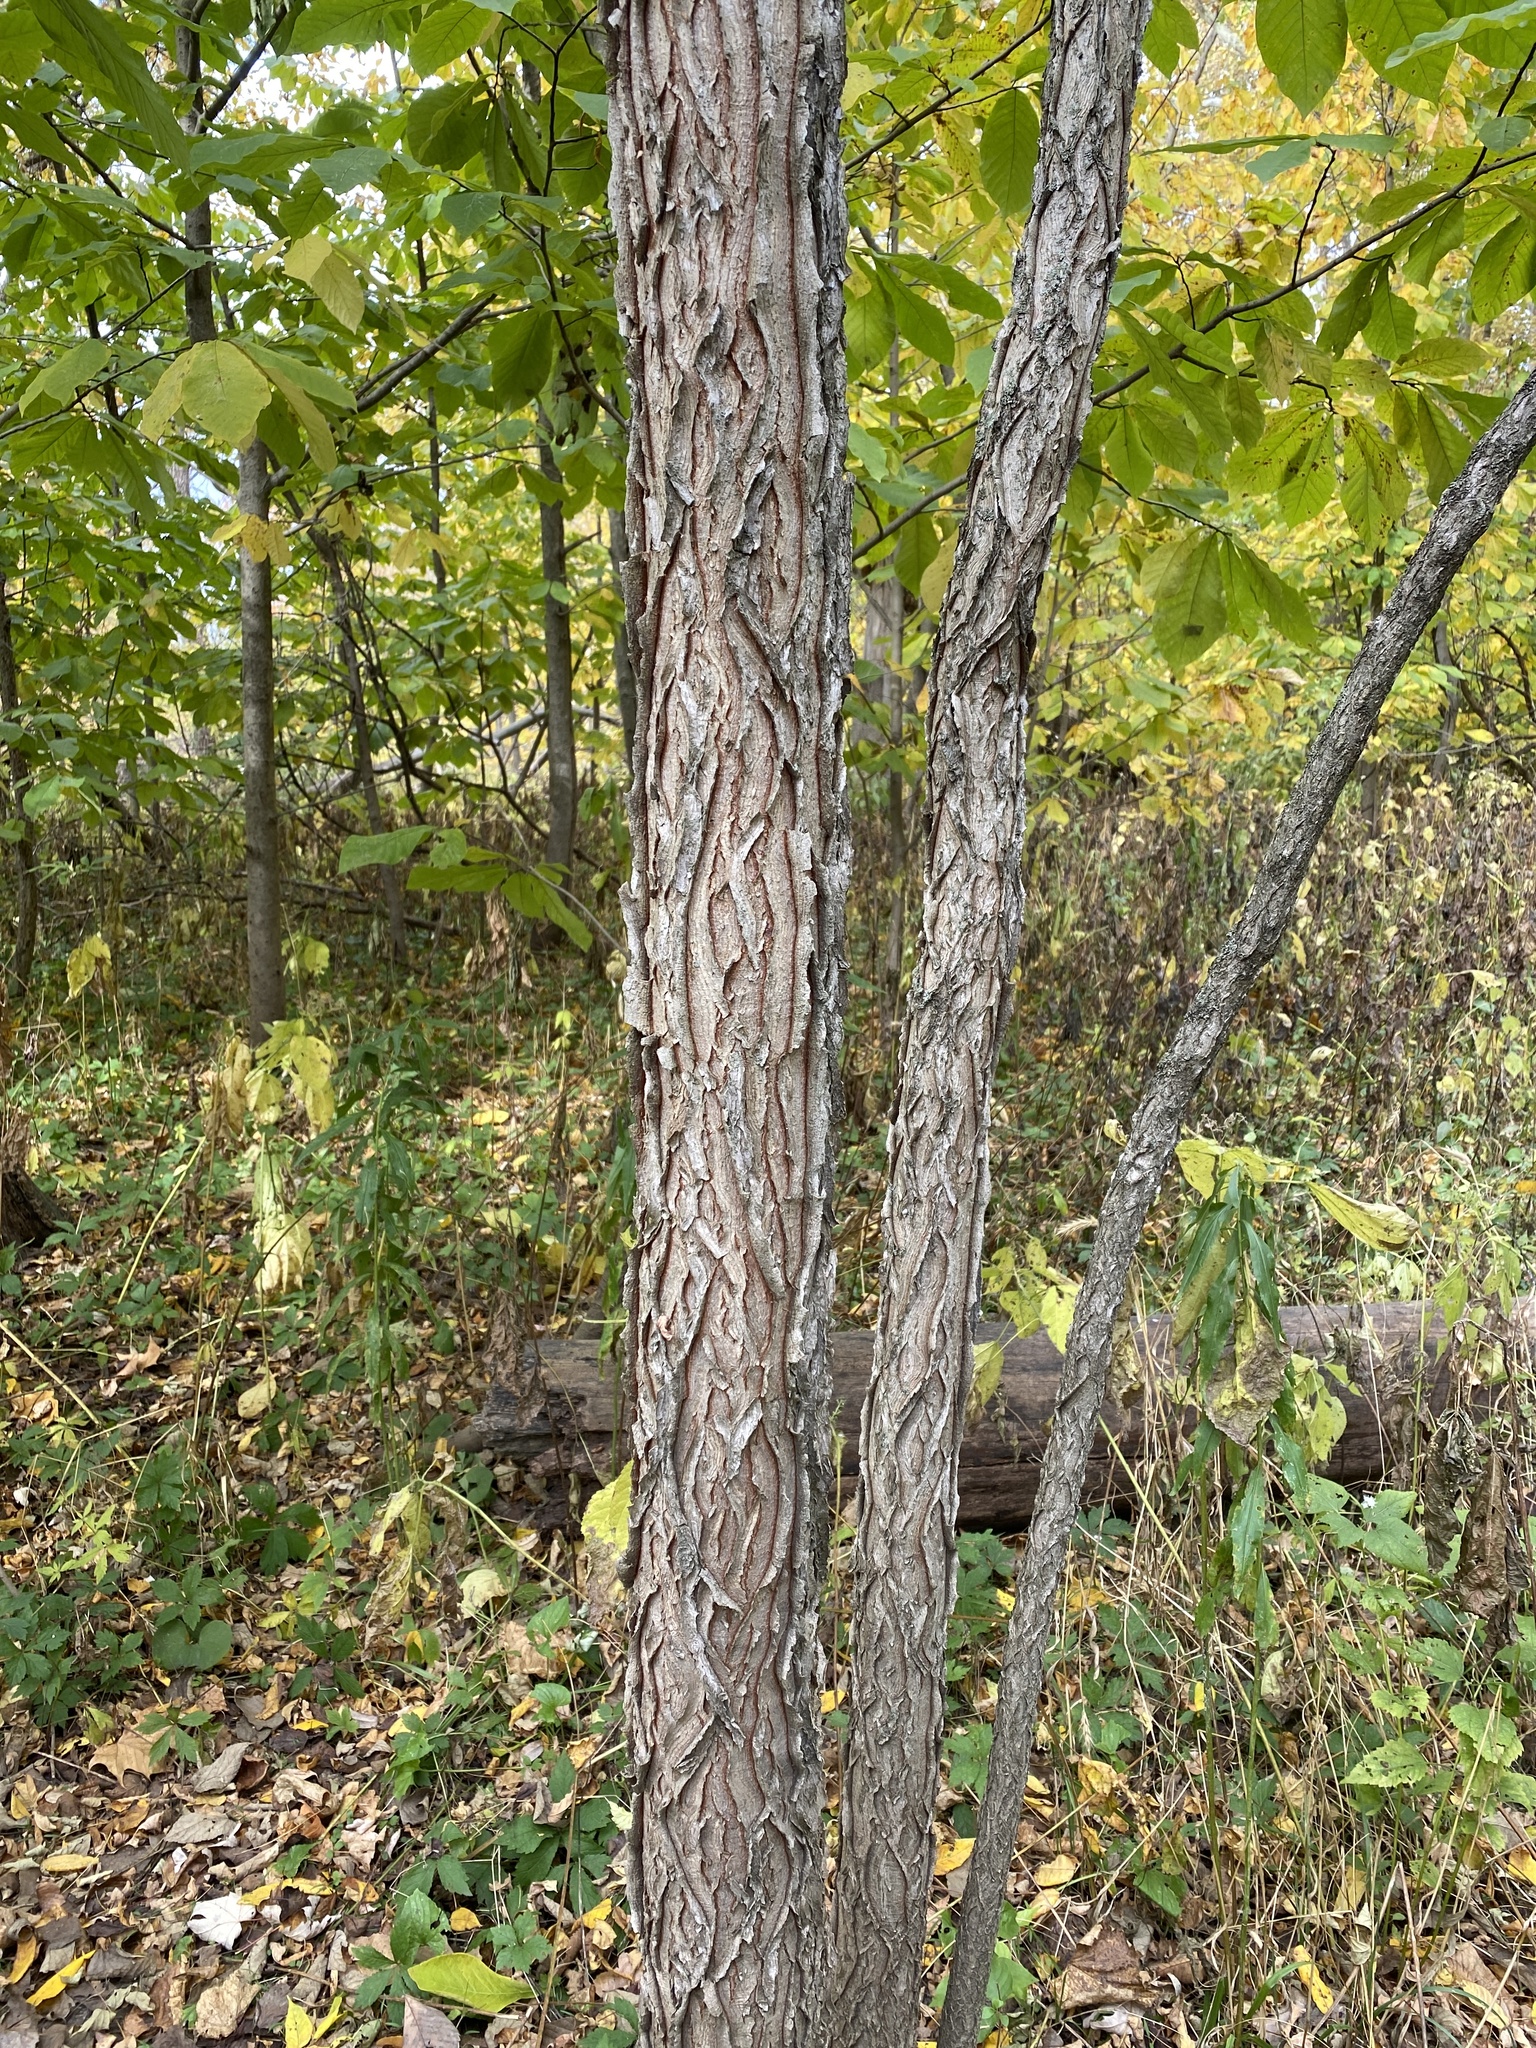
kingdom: Plantae
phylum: Tracheophyta
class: Magnoliopsida
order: Fabales
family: Fabaceae
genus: Gymnocladus
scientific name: Gymnocladus dioicus
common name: Kentucky coffee-tree
